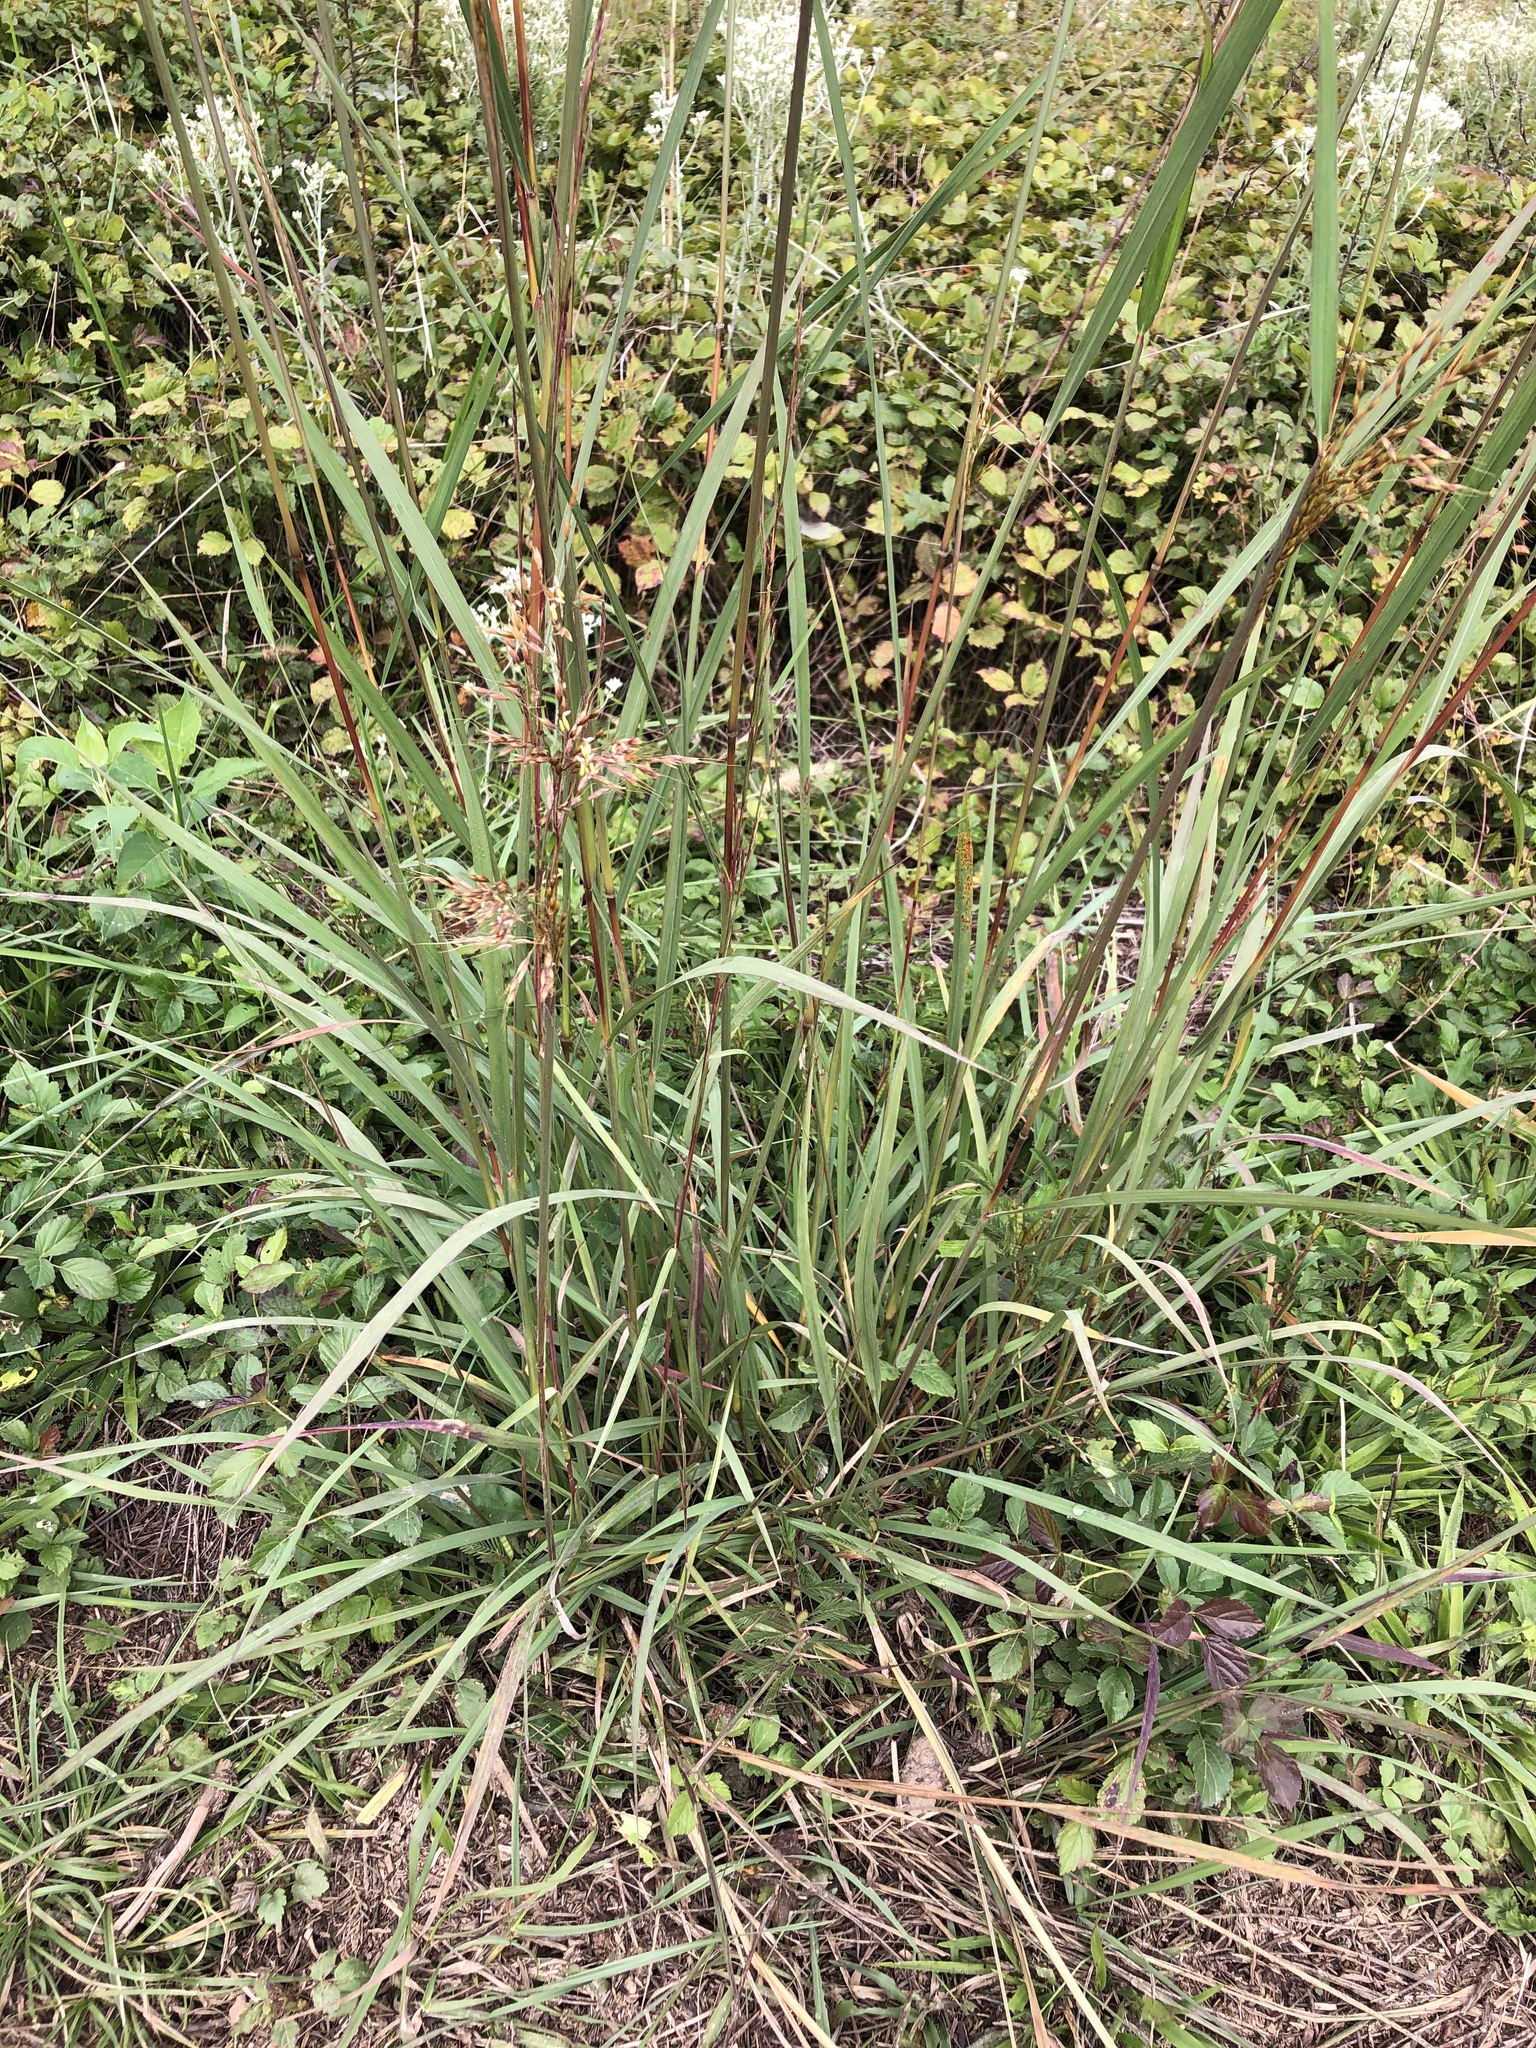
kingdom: Plantae
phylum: Tracheophyta
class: Liliopsida
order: Poales
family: Poaceae
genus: Sorghastrum
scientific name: Sorghastrum nutans
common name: Indian grass
